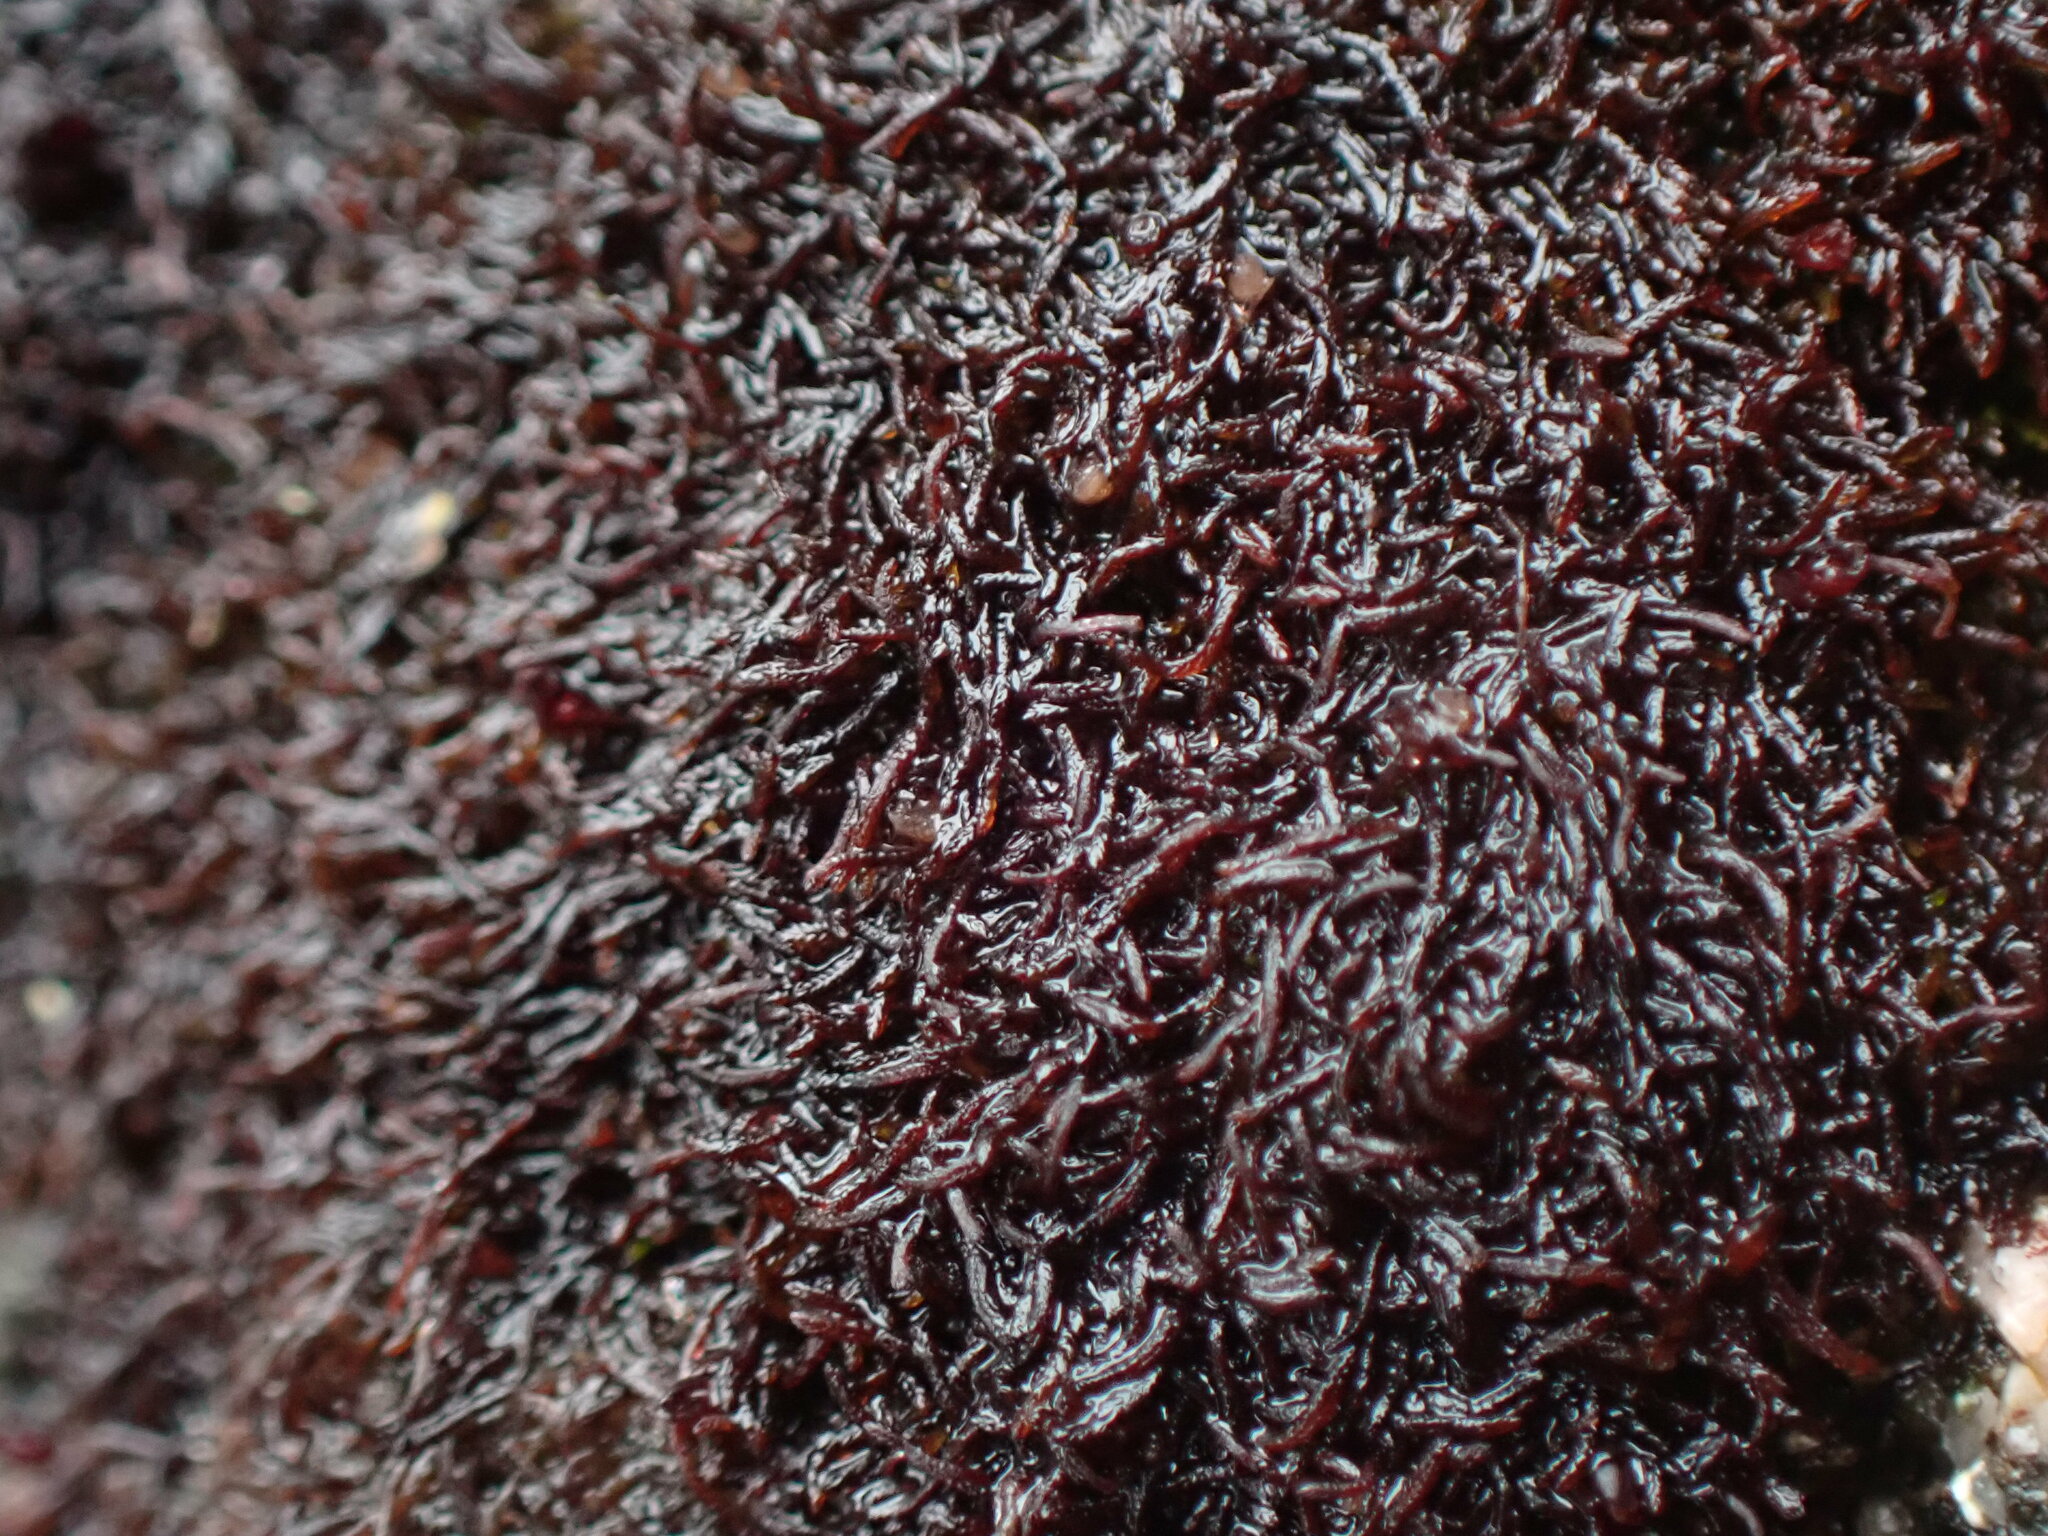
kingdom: Plantae
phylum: Marchantiophyta
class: Jungermanniopsida
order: Jungermanniales
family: Gymnomitriaceae
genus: Marsupella
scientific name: Marsupella stableri
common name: Stabler's rustwort
